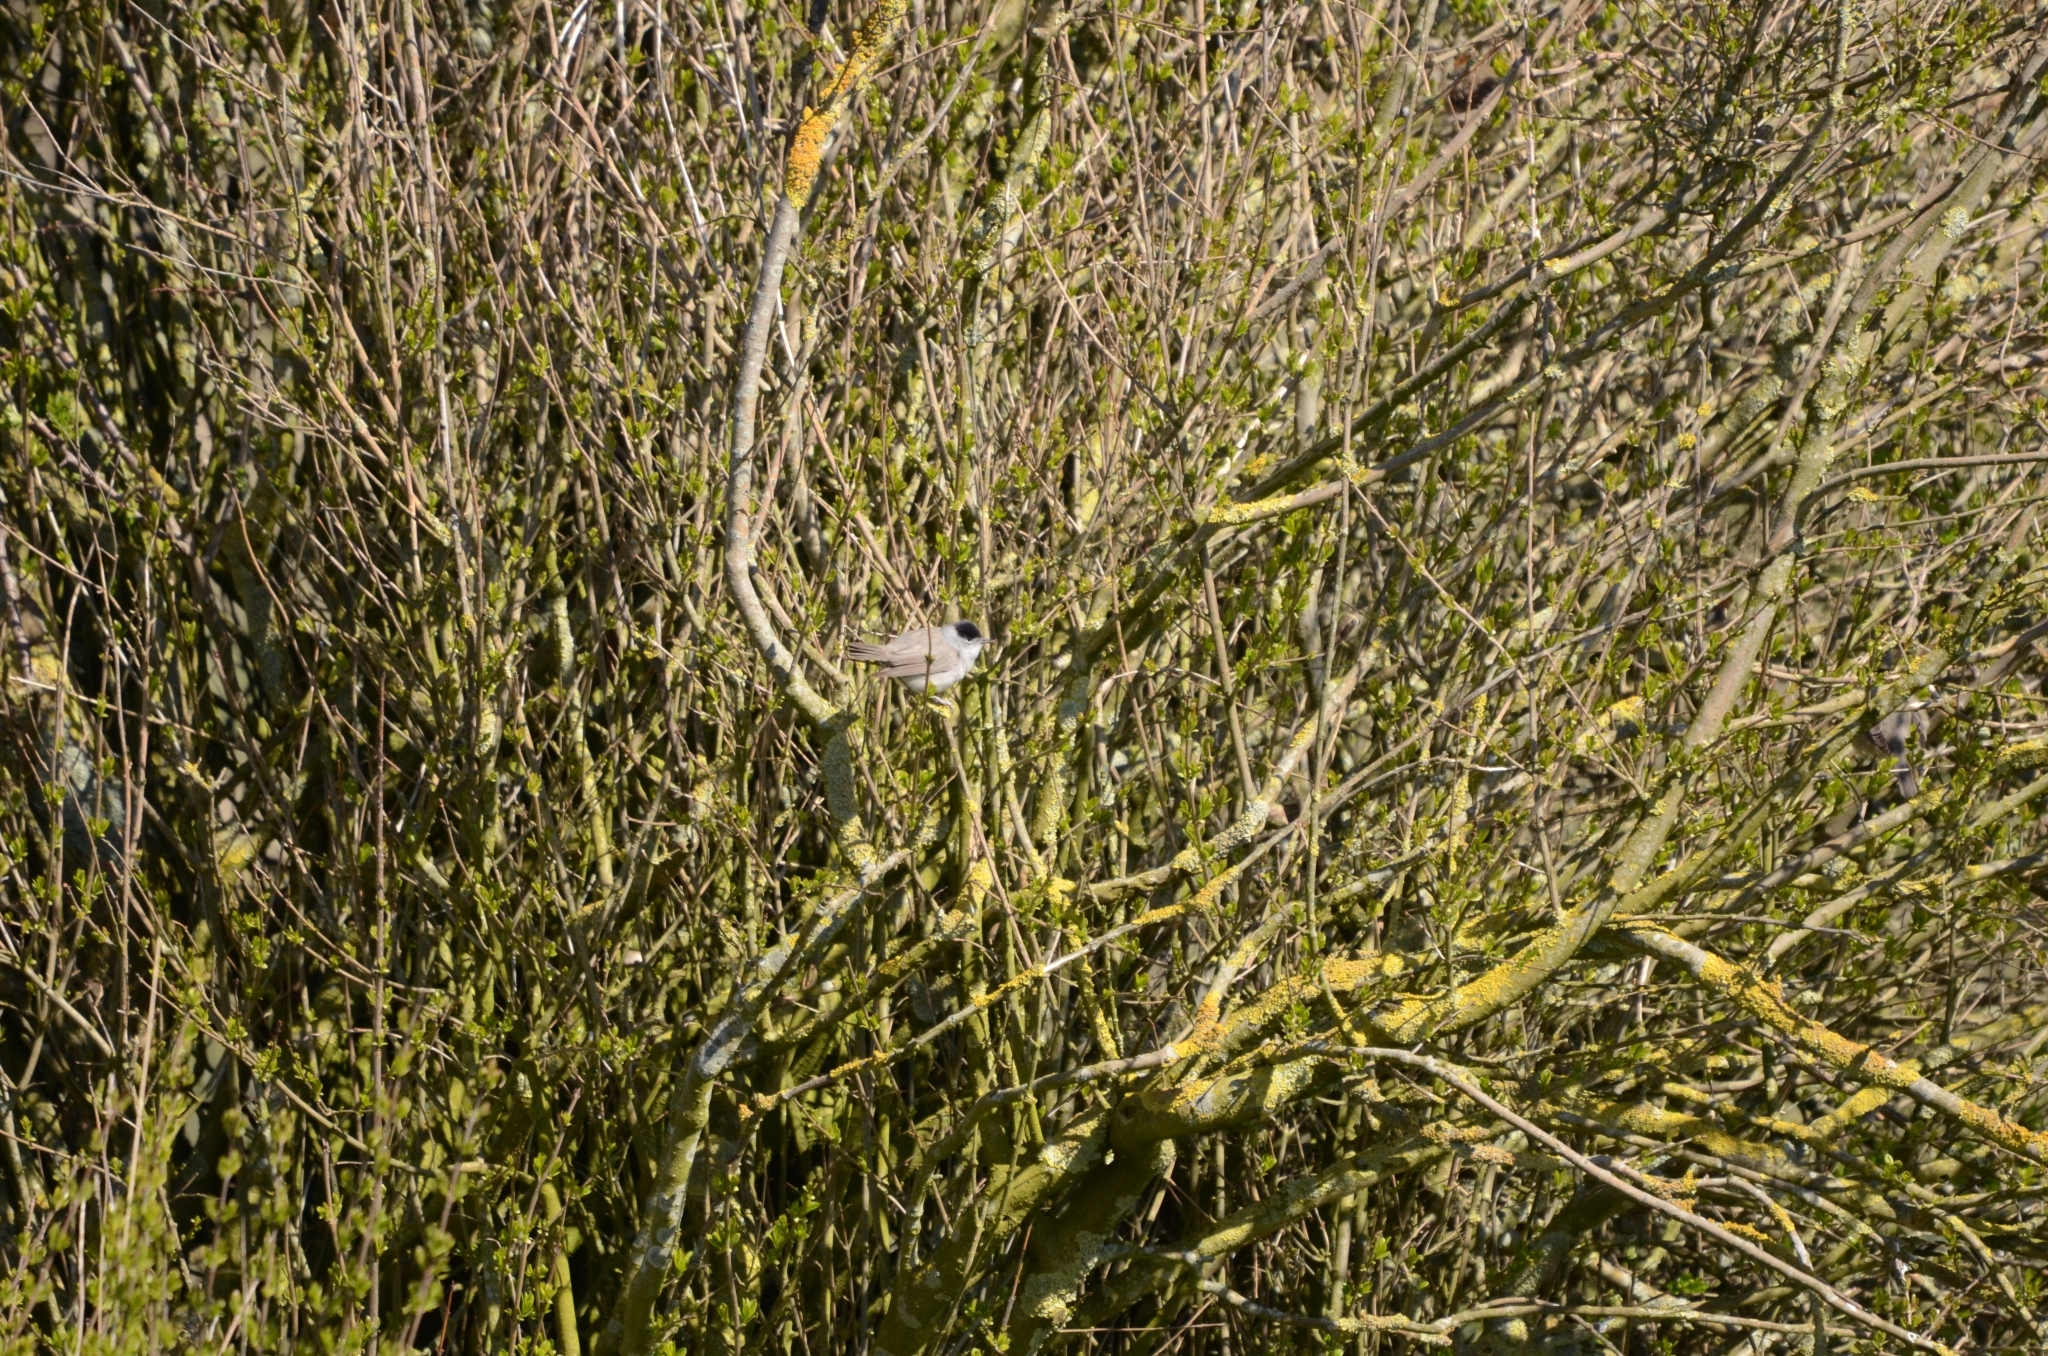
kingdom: Animalia
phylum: Chordata
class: Aves
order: Passeriformes
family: Sylviidae
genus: Sylvia
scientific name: Sylvia atricapilla
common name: Eurasian blackcap
